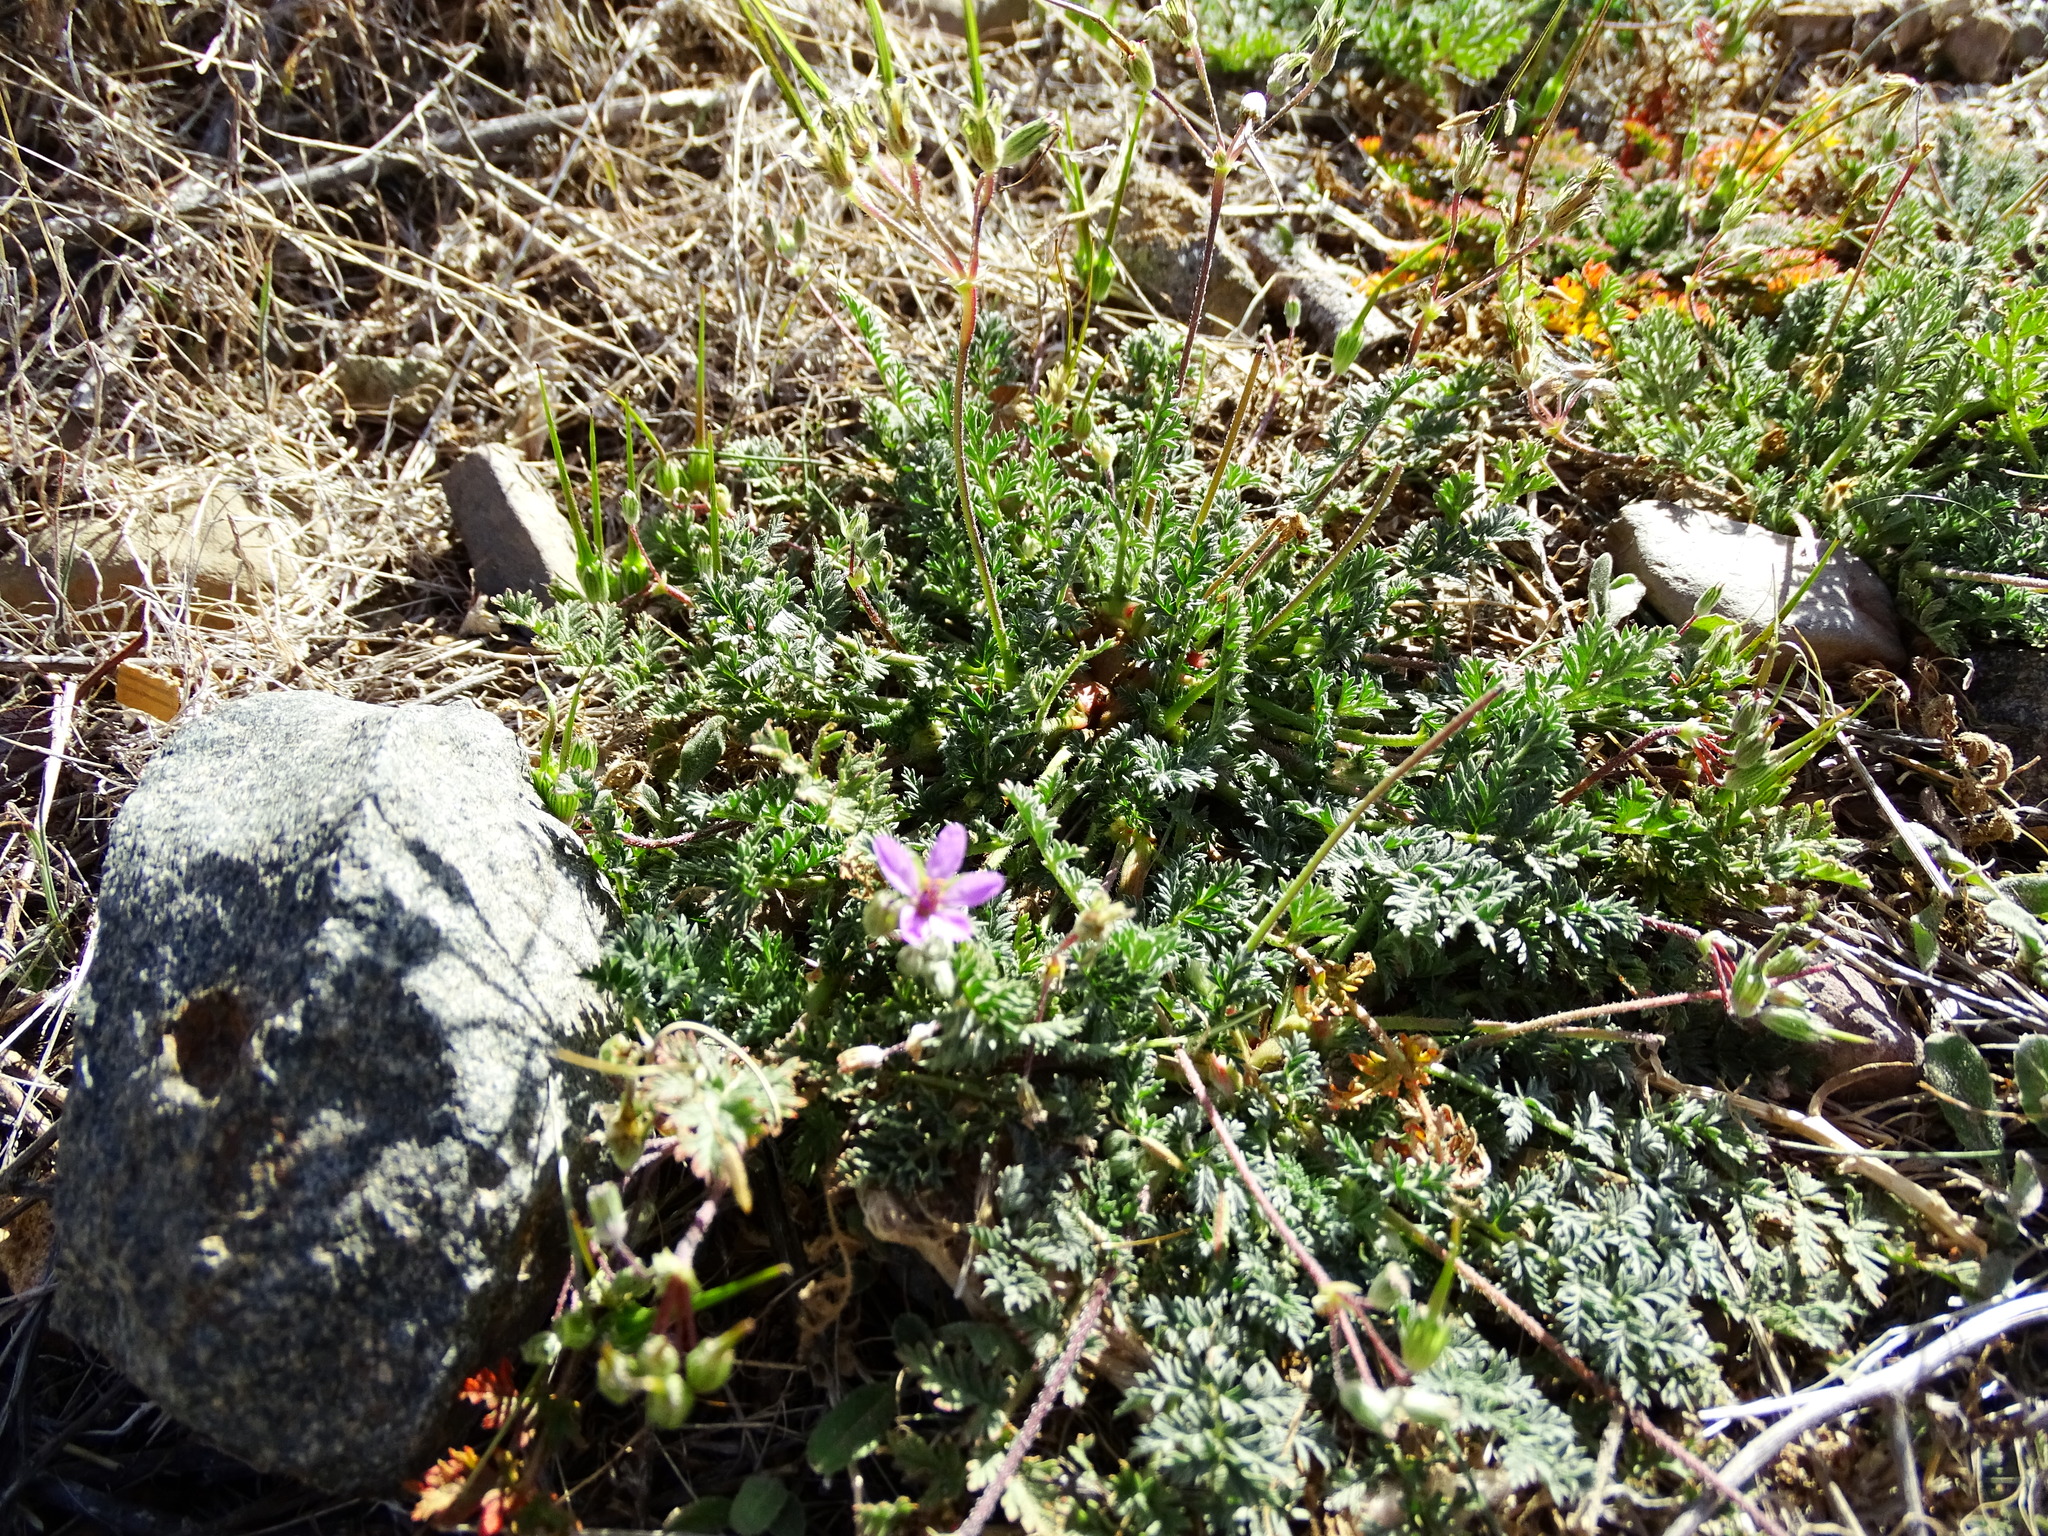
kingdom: Plantae
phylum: Tracheophyta
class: Magnoliopsida
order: Geraniales
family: Geraniaceae
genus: Erodium
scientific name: Erodium cicutarium
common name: Common stork's-bill
